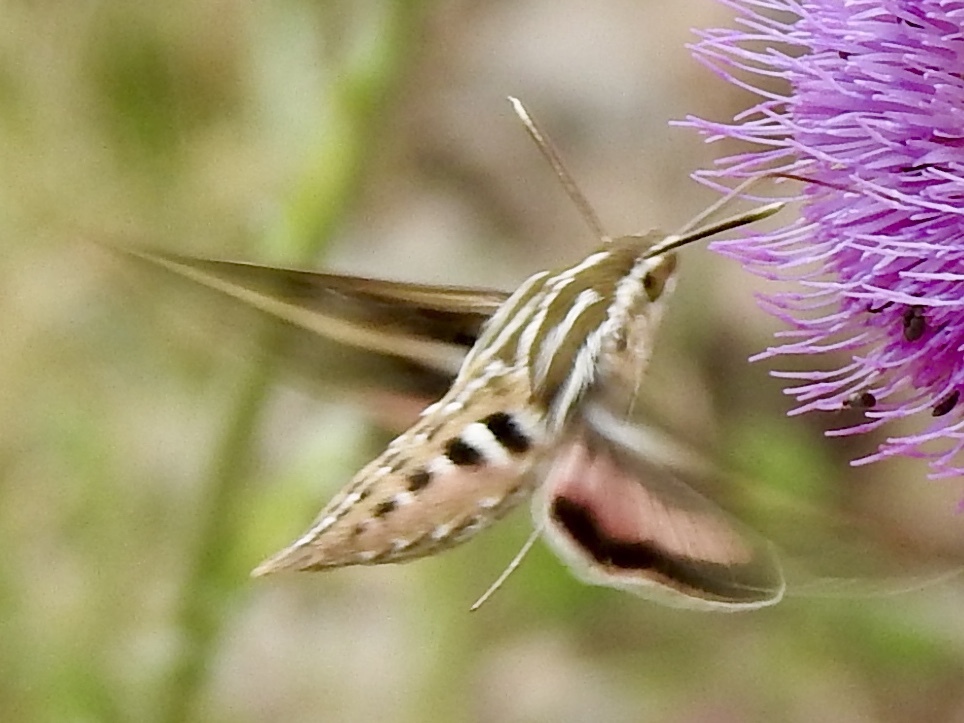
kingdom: Animalia
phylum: Arthropoda
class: Insecta
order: Lepidoptera
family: Sphingidae
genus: Hyles
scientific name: Hyles lineata
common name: White-lined sphinx
